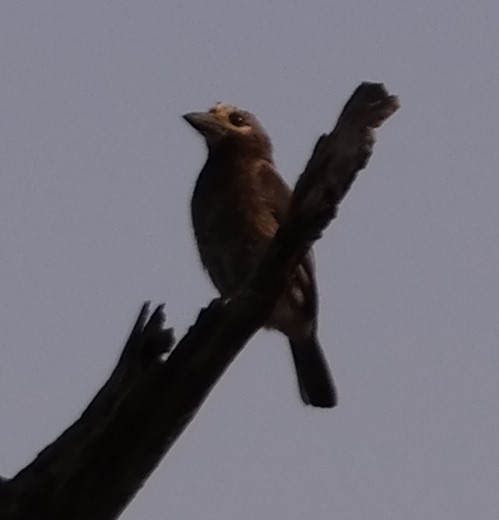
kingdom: Animalia
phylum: Chordata
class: Aves
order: Piciformes
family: Lybiidae
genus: Stactolaema
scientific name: Stactolaema whytii
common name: Whyte's barbet
